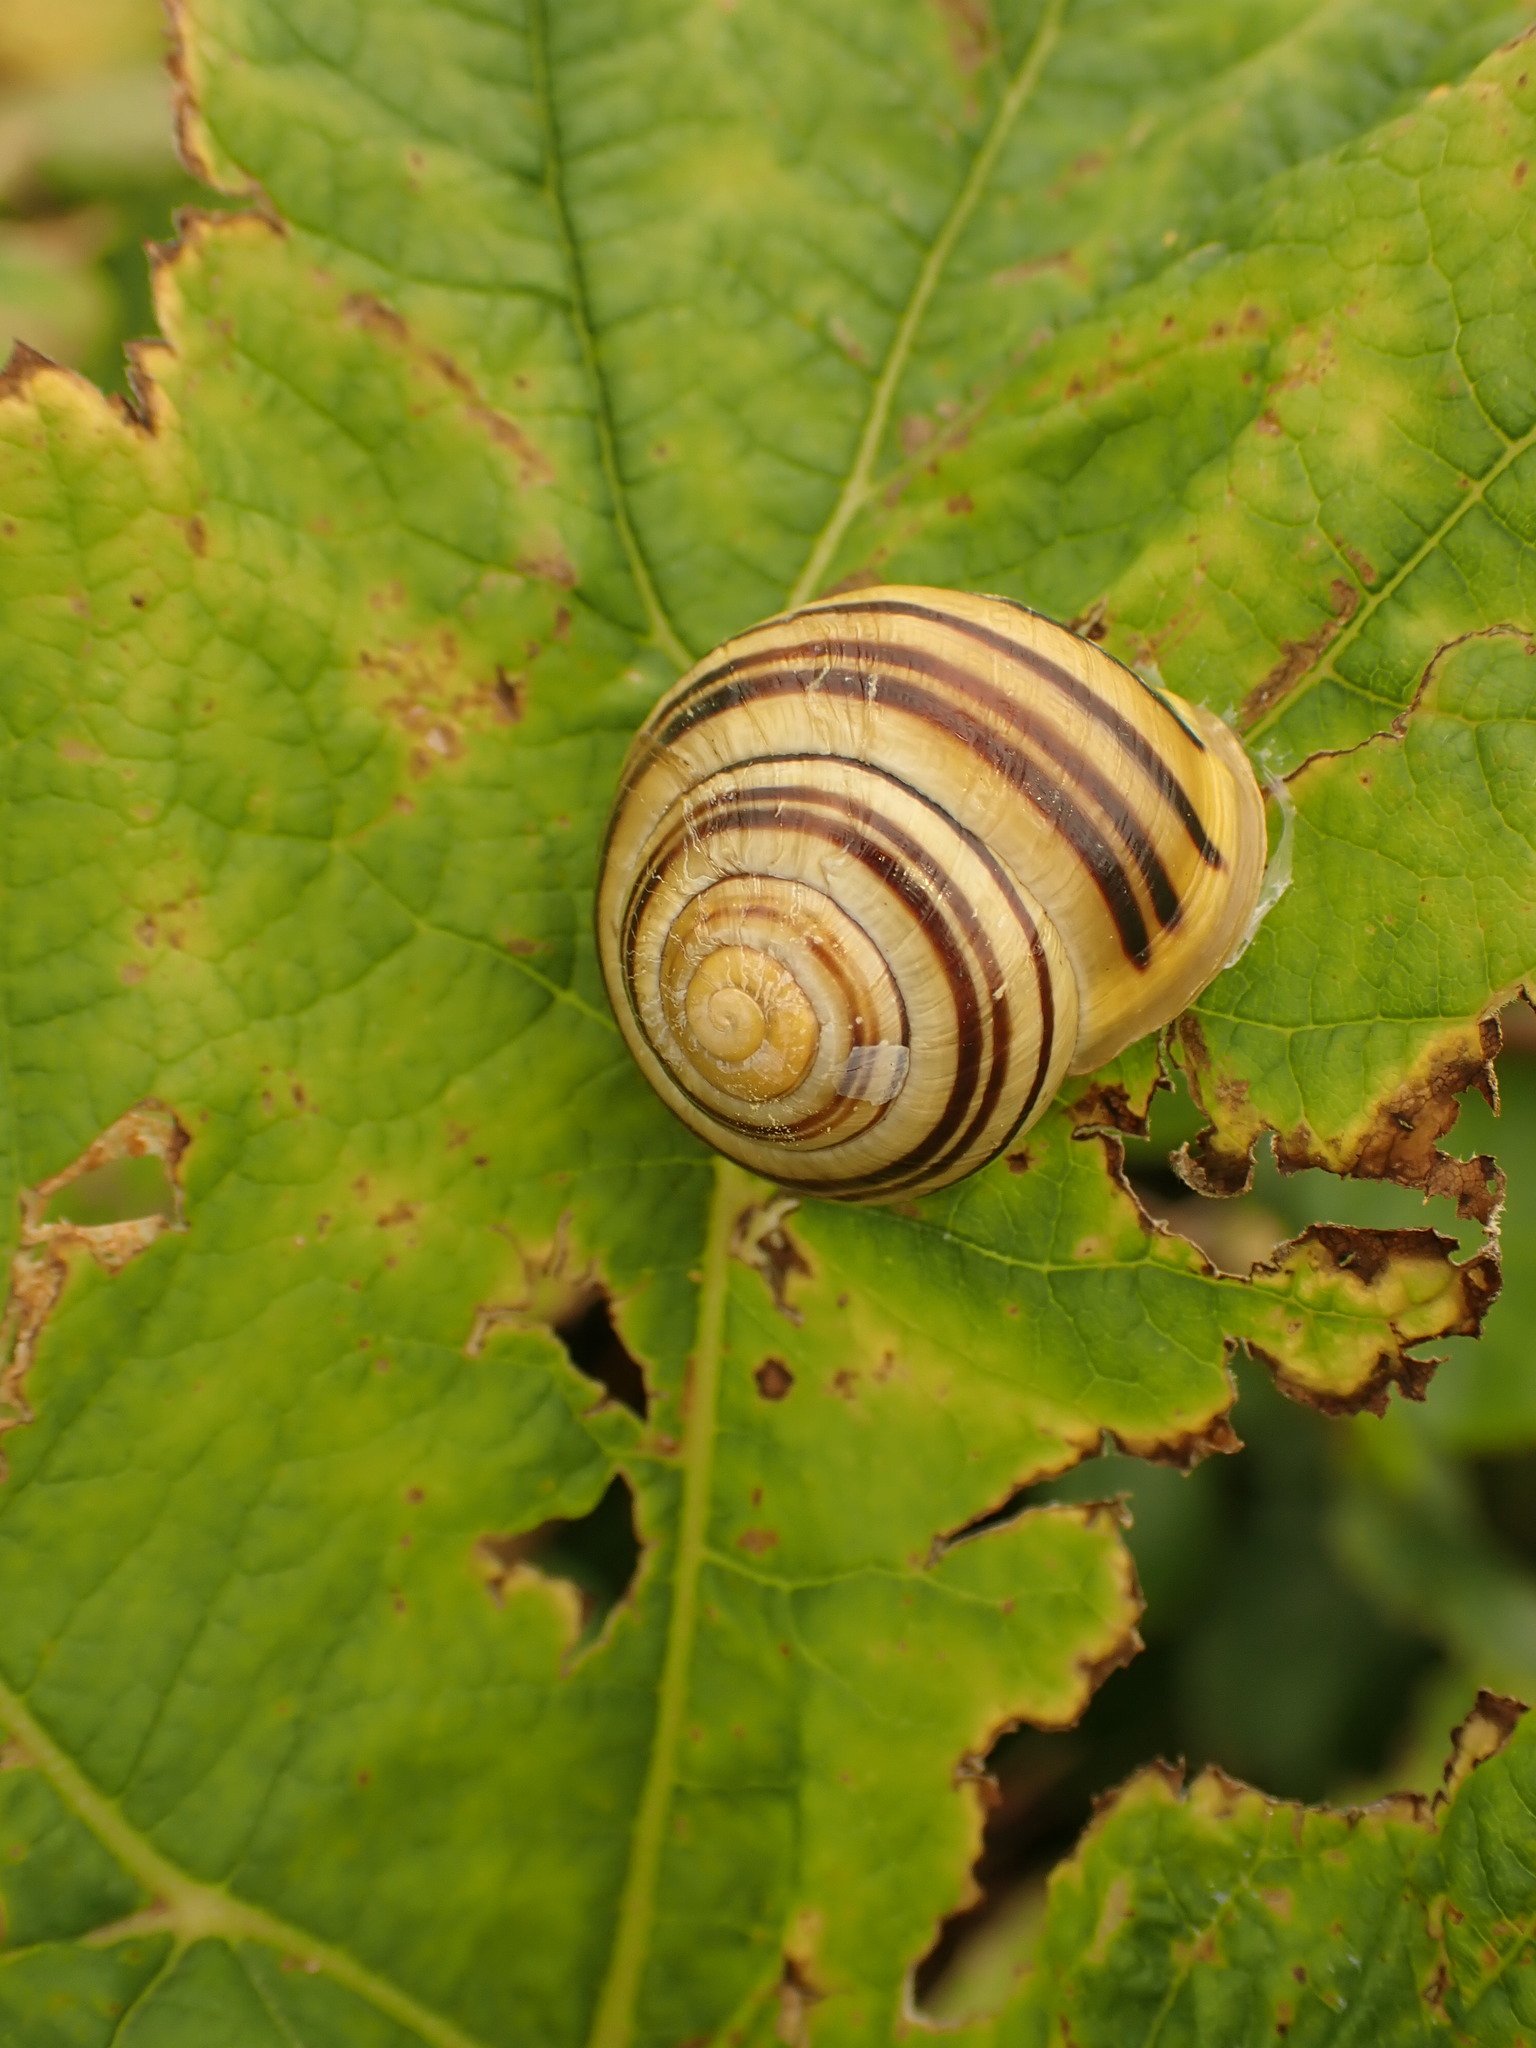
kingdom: Animalia
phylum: Mollusca
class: Gastropoda
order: Stylommatophora
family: Helicidae
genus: Cepaea
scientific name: Cepaea hortensis
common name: White-lip gardensnail
